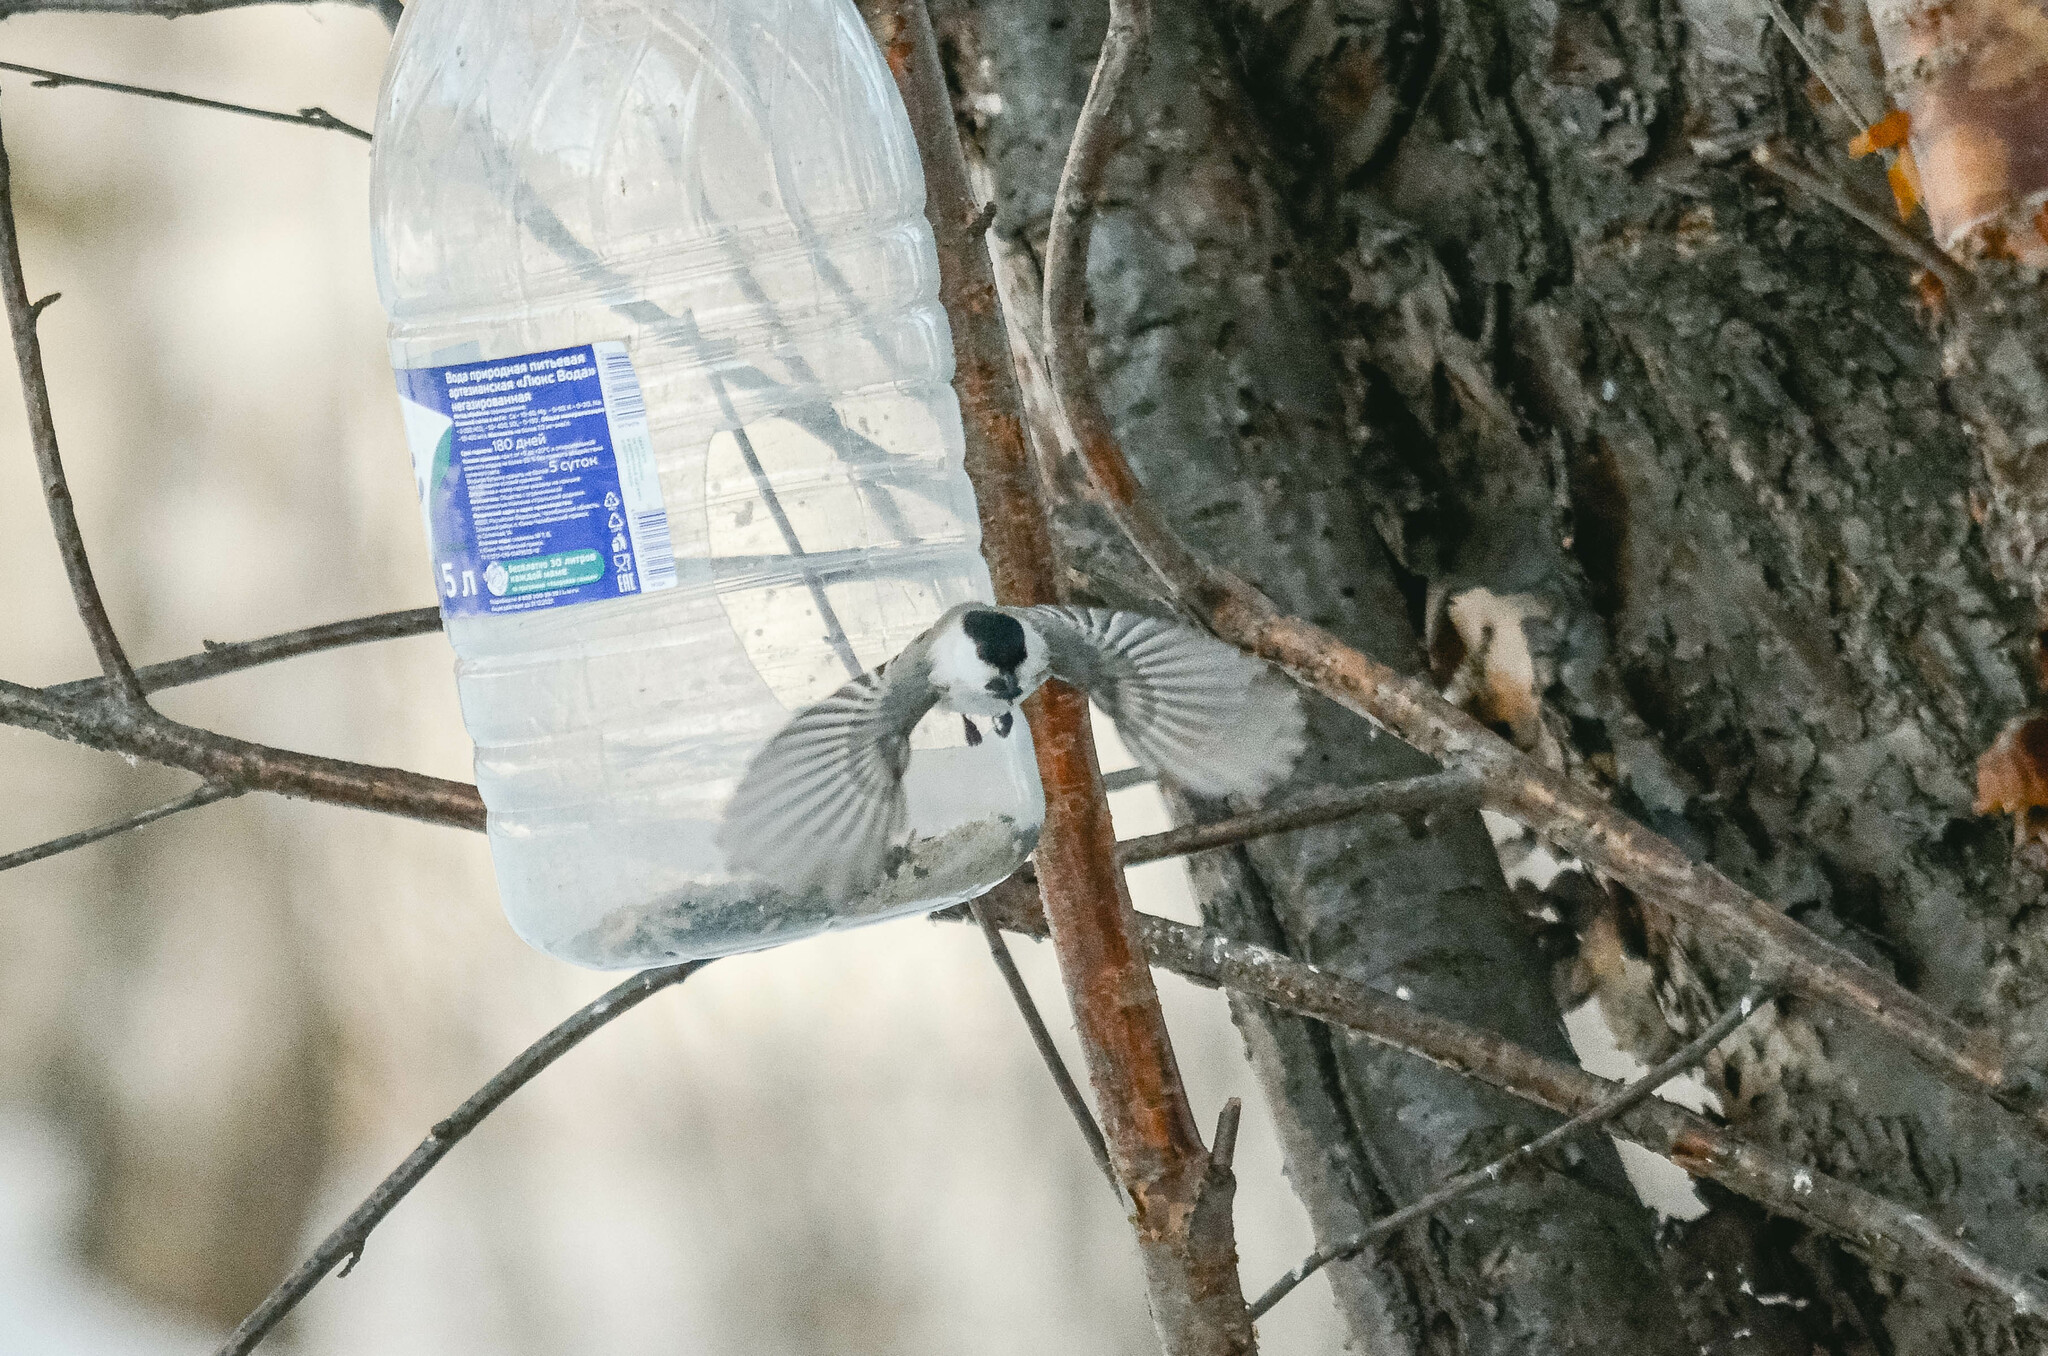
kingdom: Animalia
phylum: Chordata
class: Aves
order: Passeriformes
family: Paridae
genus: Poecile
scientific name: Poecile montanus
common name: Willow tit
